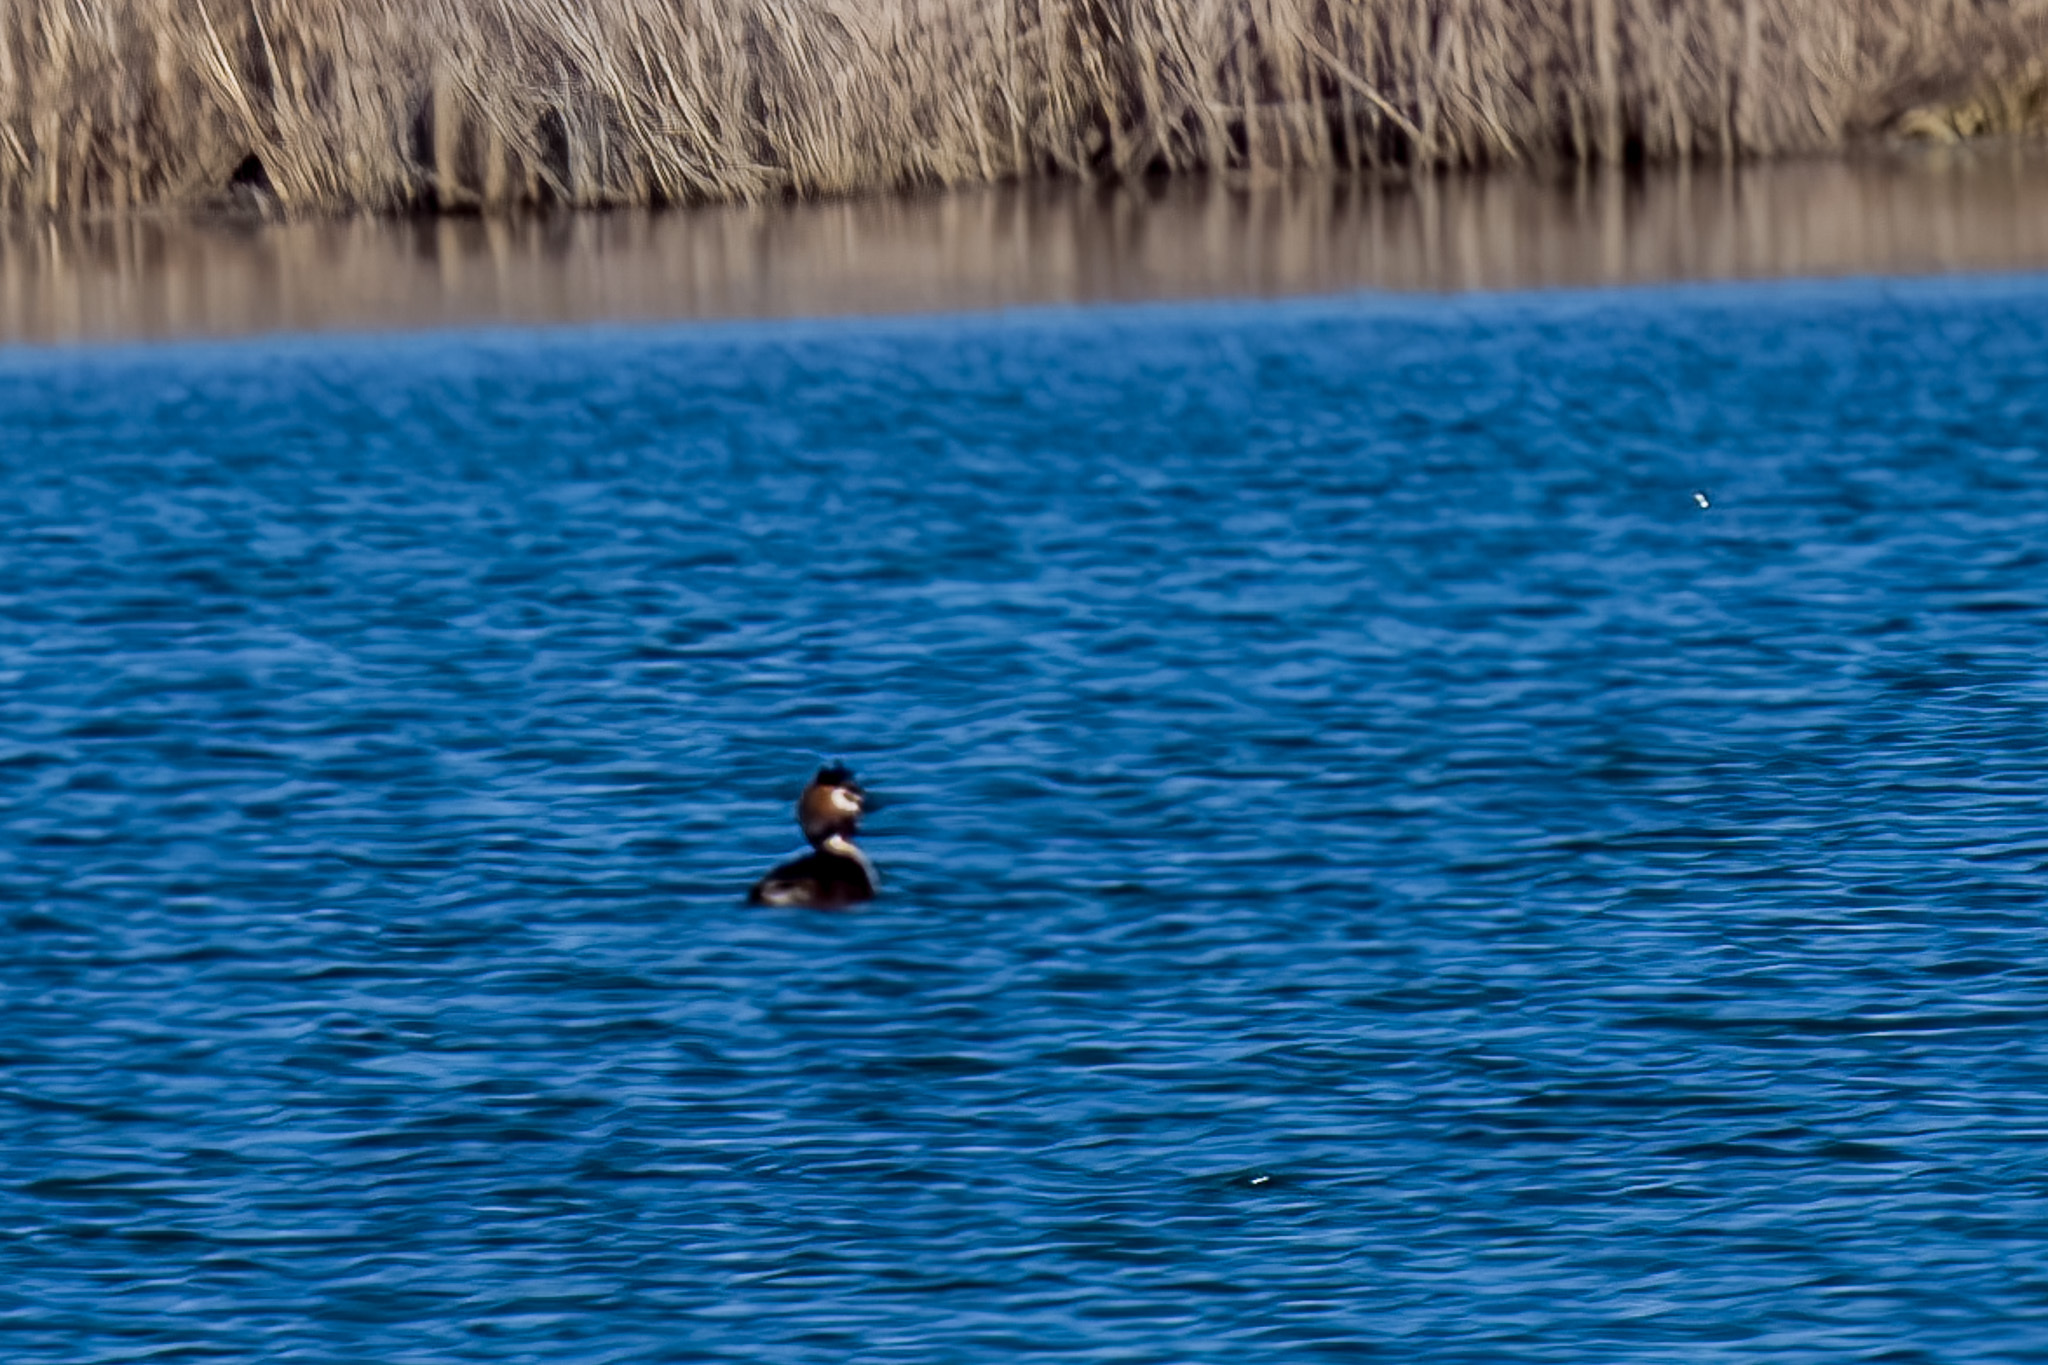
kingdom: Animalia
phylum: Chordata
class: Aves
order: Podicipediformes
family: Podicipedidae
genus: Podiceps
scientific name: Podiceps cristatus
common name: Great crested grebe
